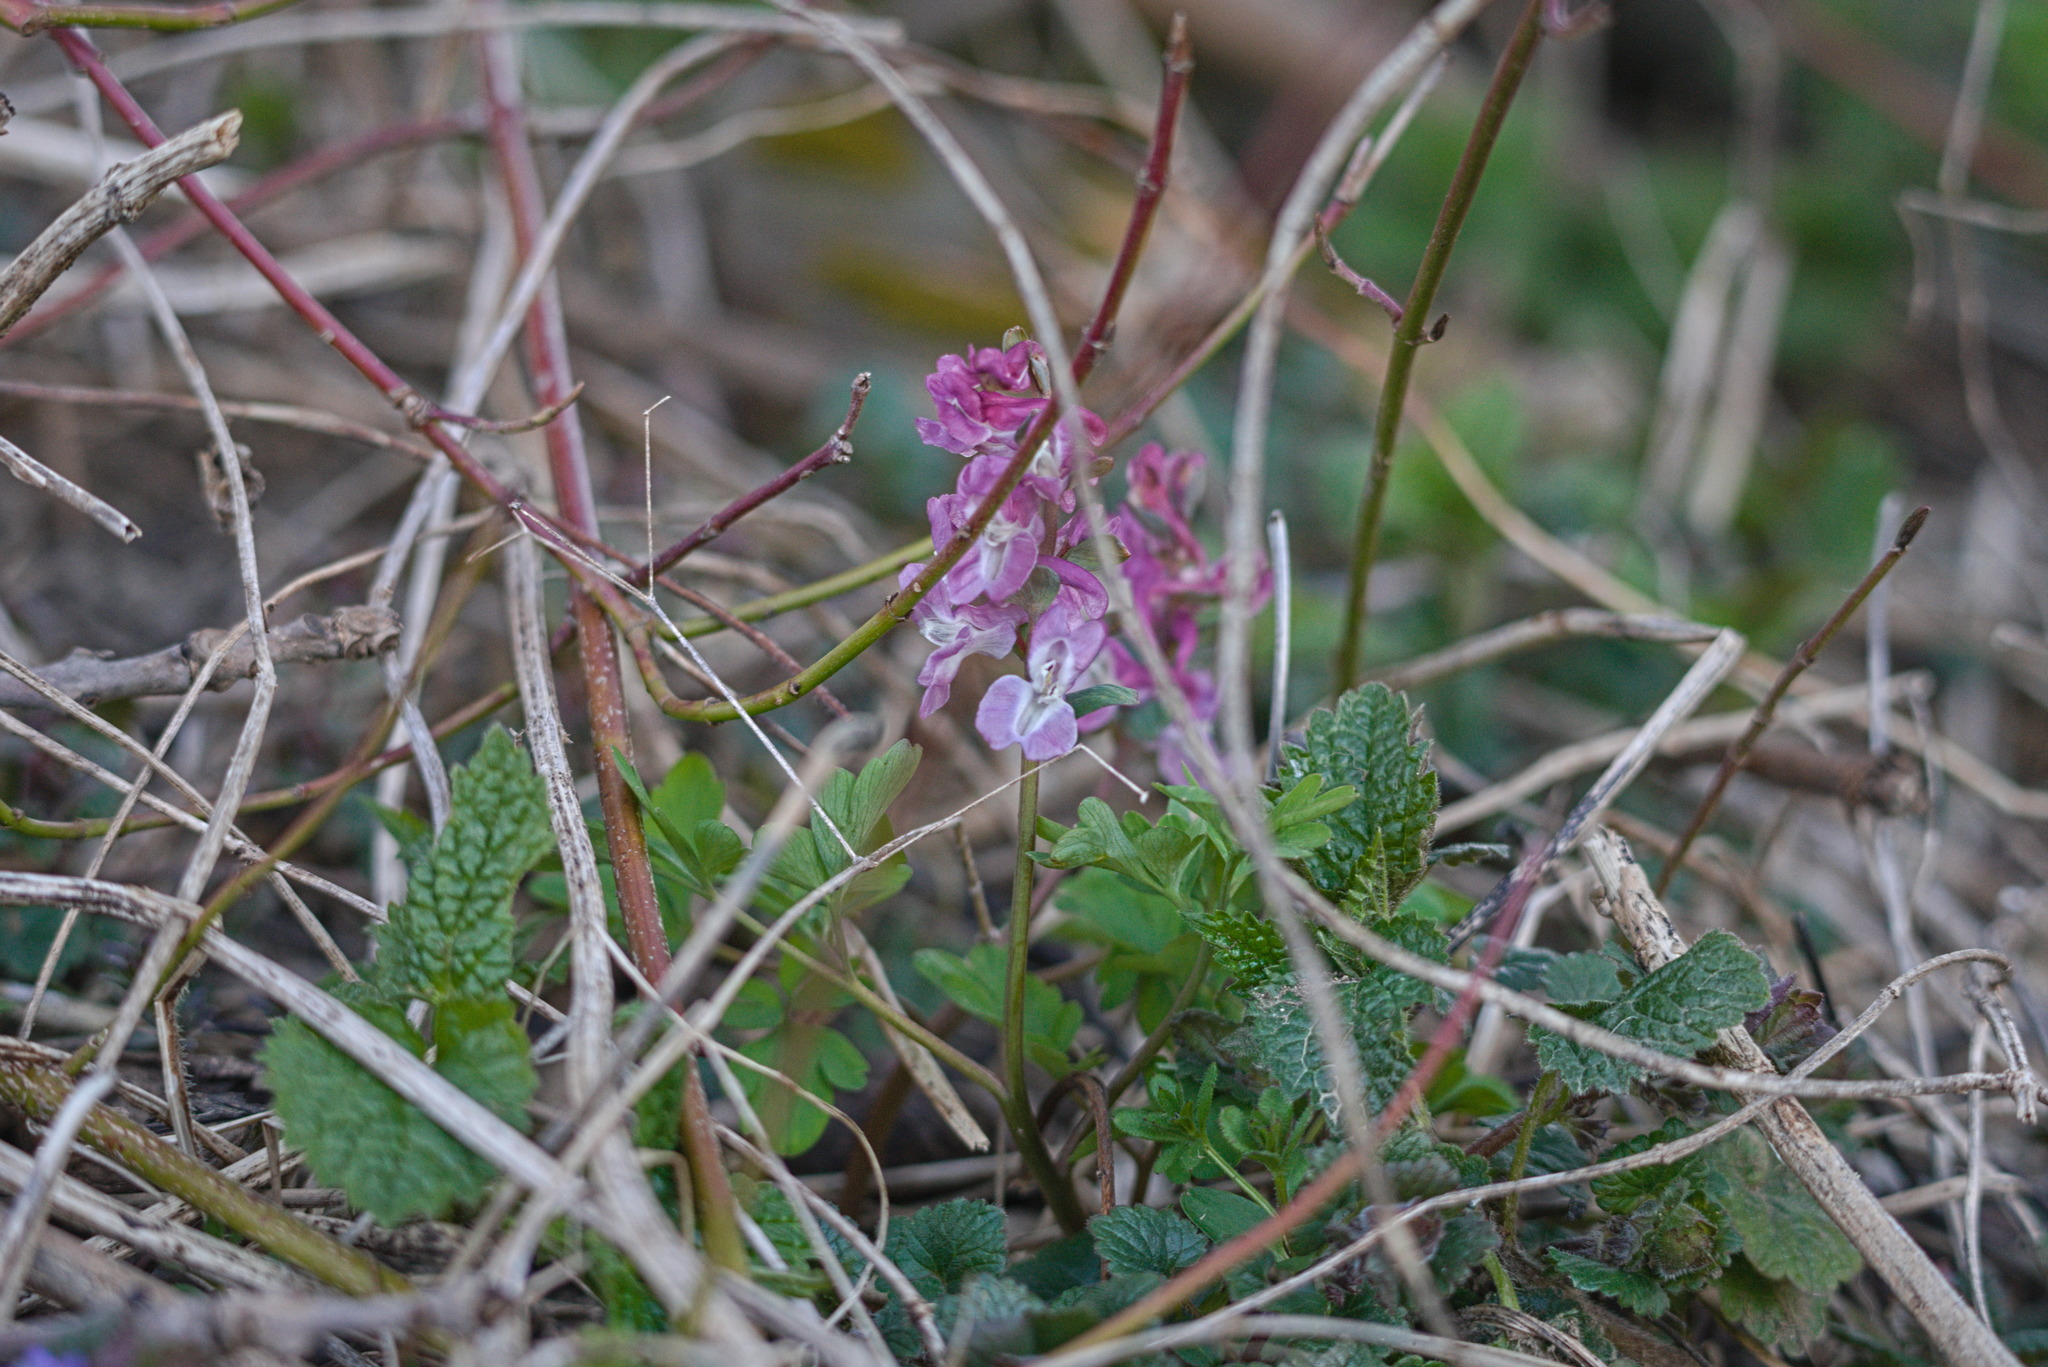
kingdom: Plantae
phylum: Tracheophyta
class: Magnoliopsida
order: Ranunculales
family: Papaveraceae
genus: Corydalis
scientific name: Corydalis cava
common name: Hollowroot
